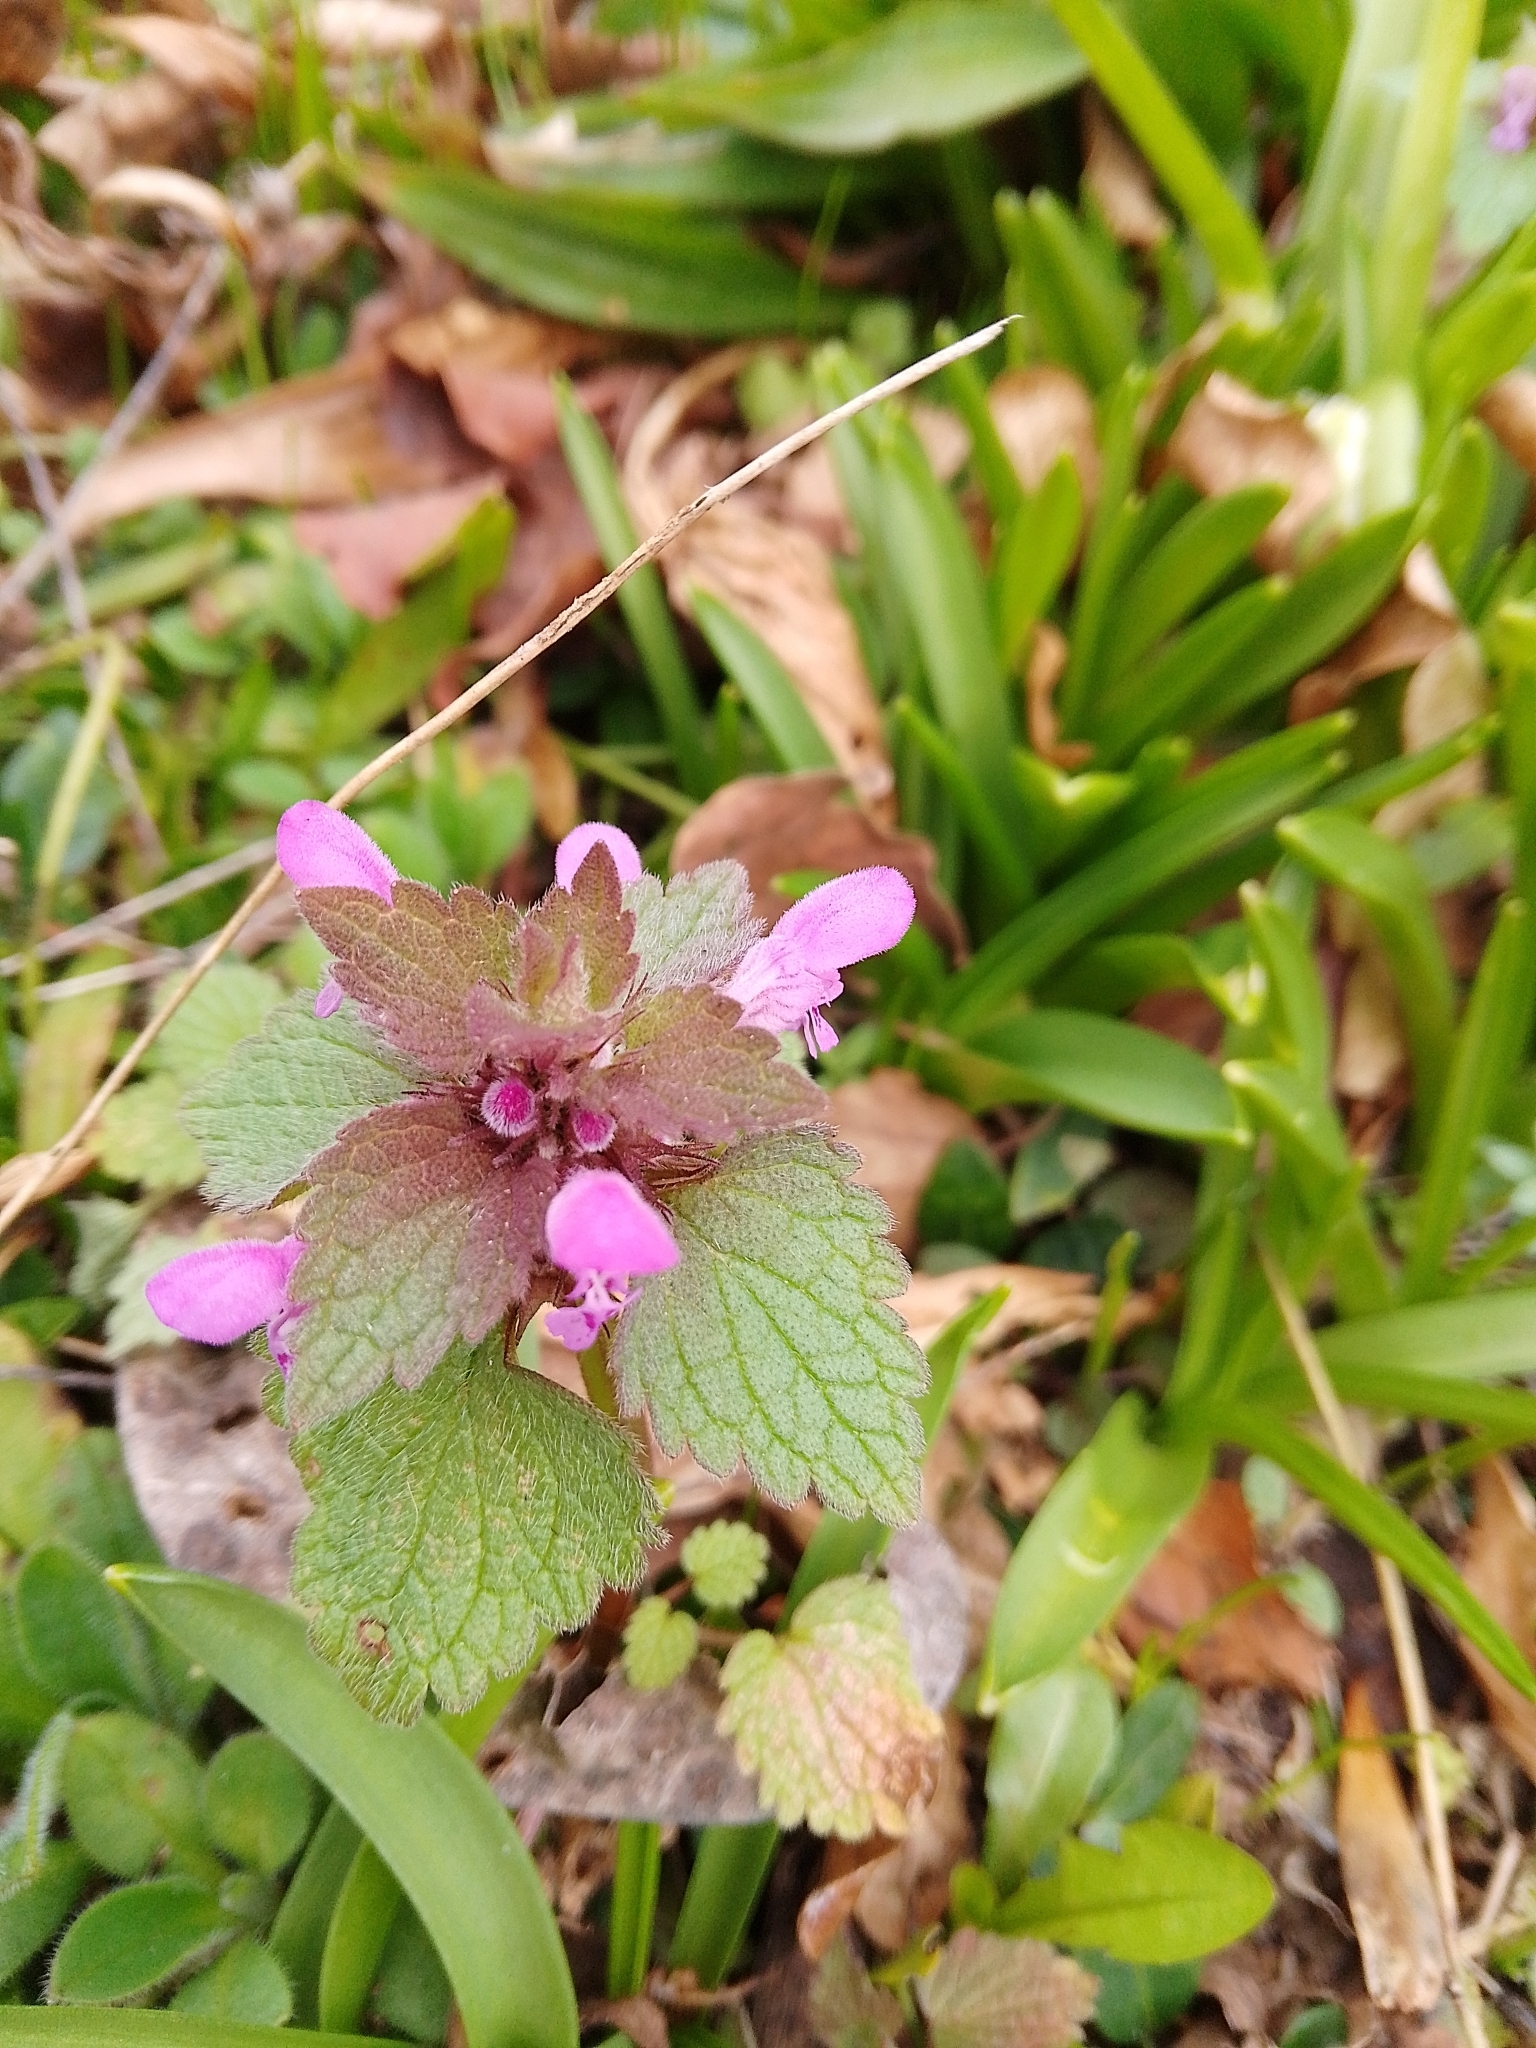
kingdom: Plantae
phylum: Tracheophyta
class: Magnoliopsida
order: Lamiales
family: Lamiaceae
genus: Lamium
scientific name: Lamium purpureum
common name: Red dead-nettle
